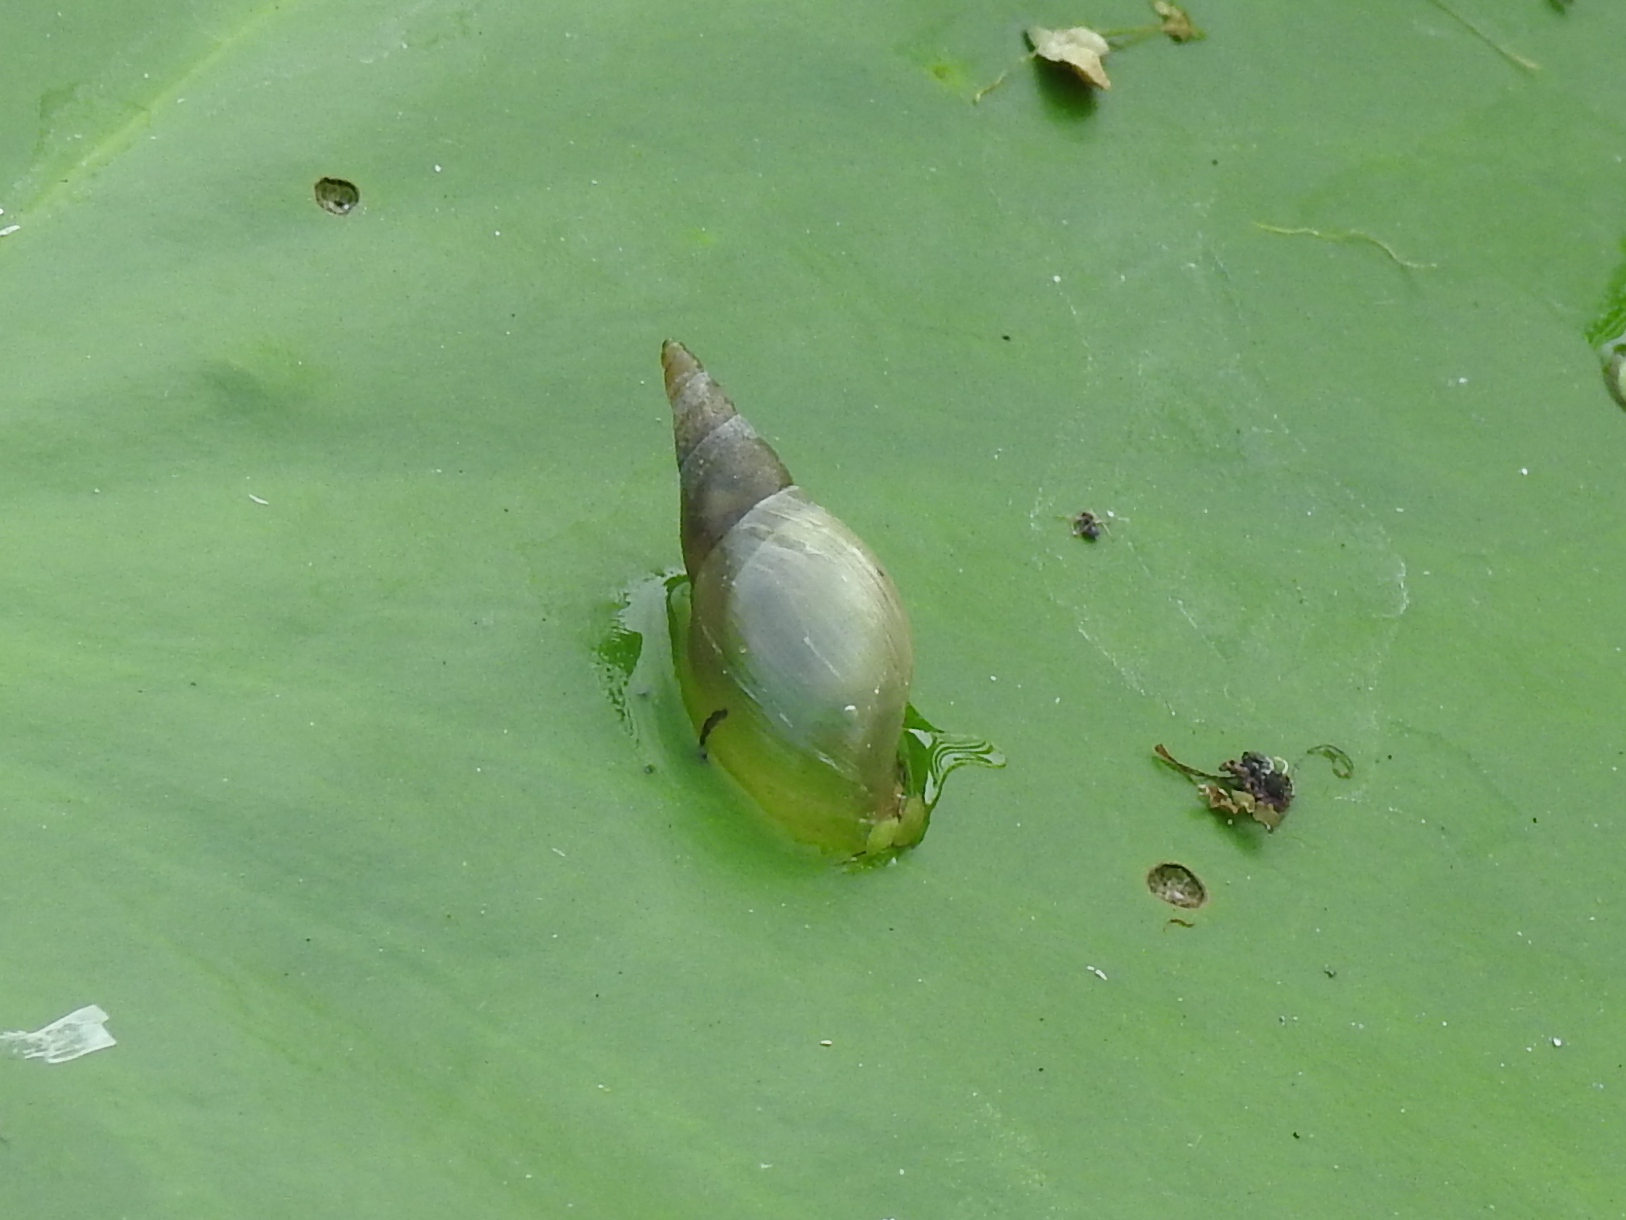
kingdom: Animalia
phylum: Mollusca
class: Gastropoda
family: Lymnaeidae
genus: Lymnaea
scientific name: Lymnaea stagnalis
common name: Great pond snail
